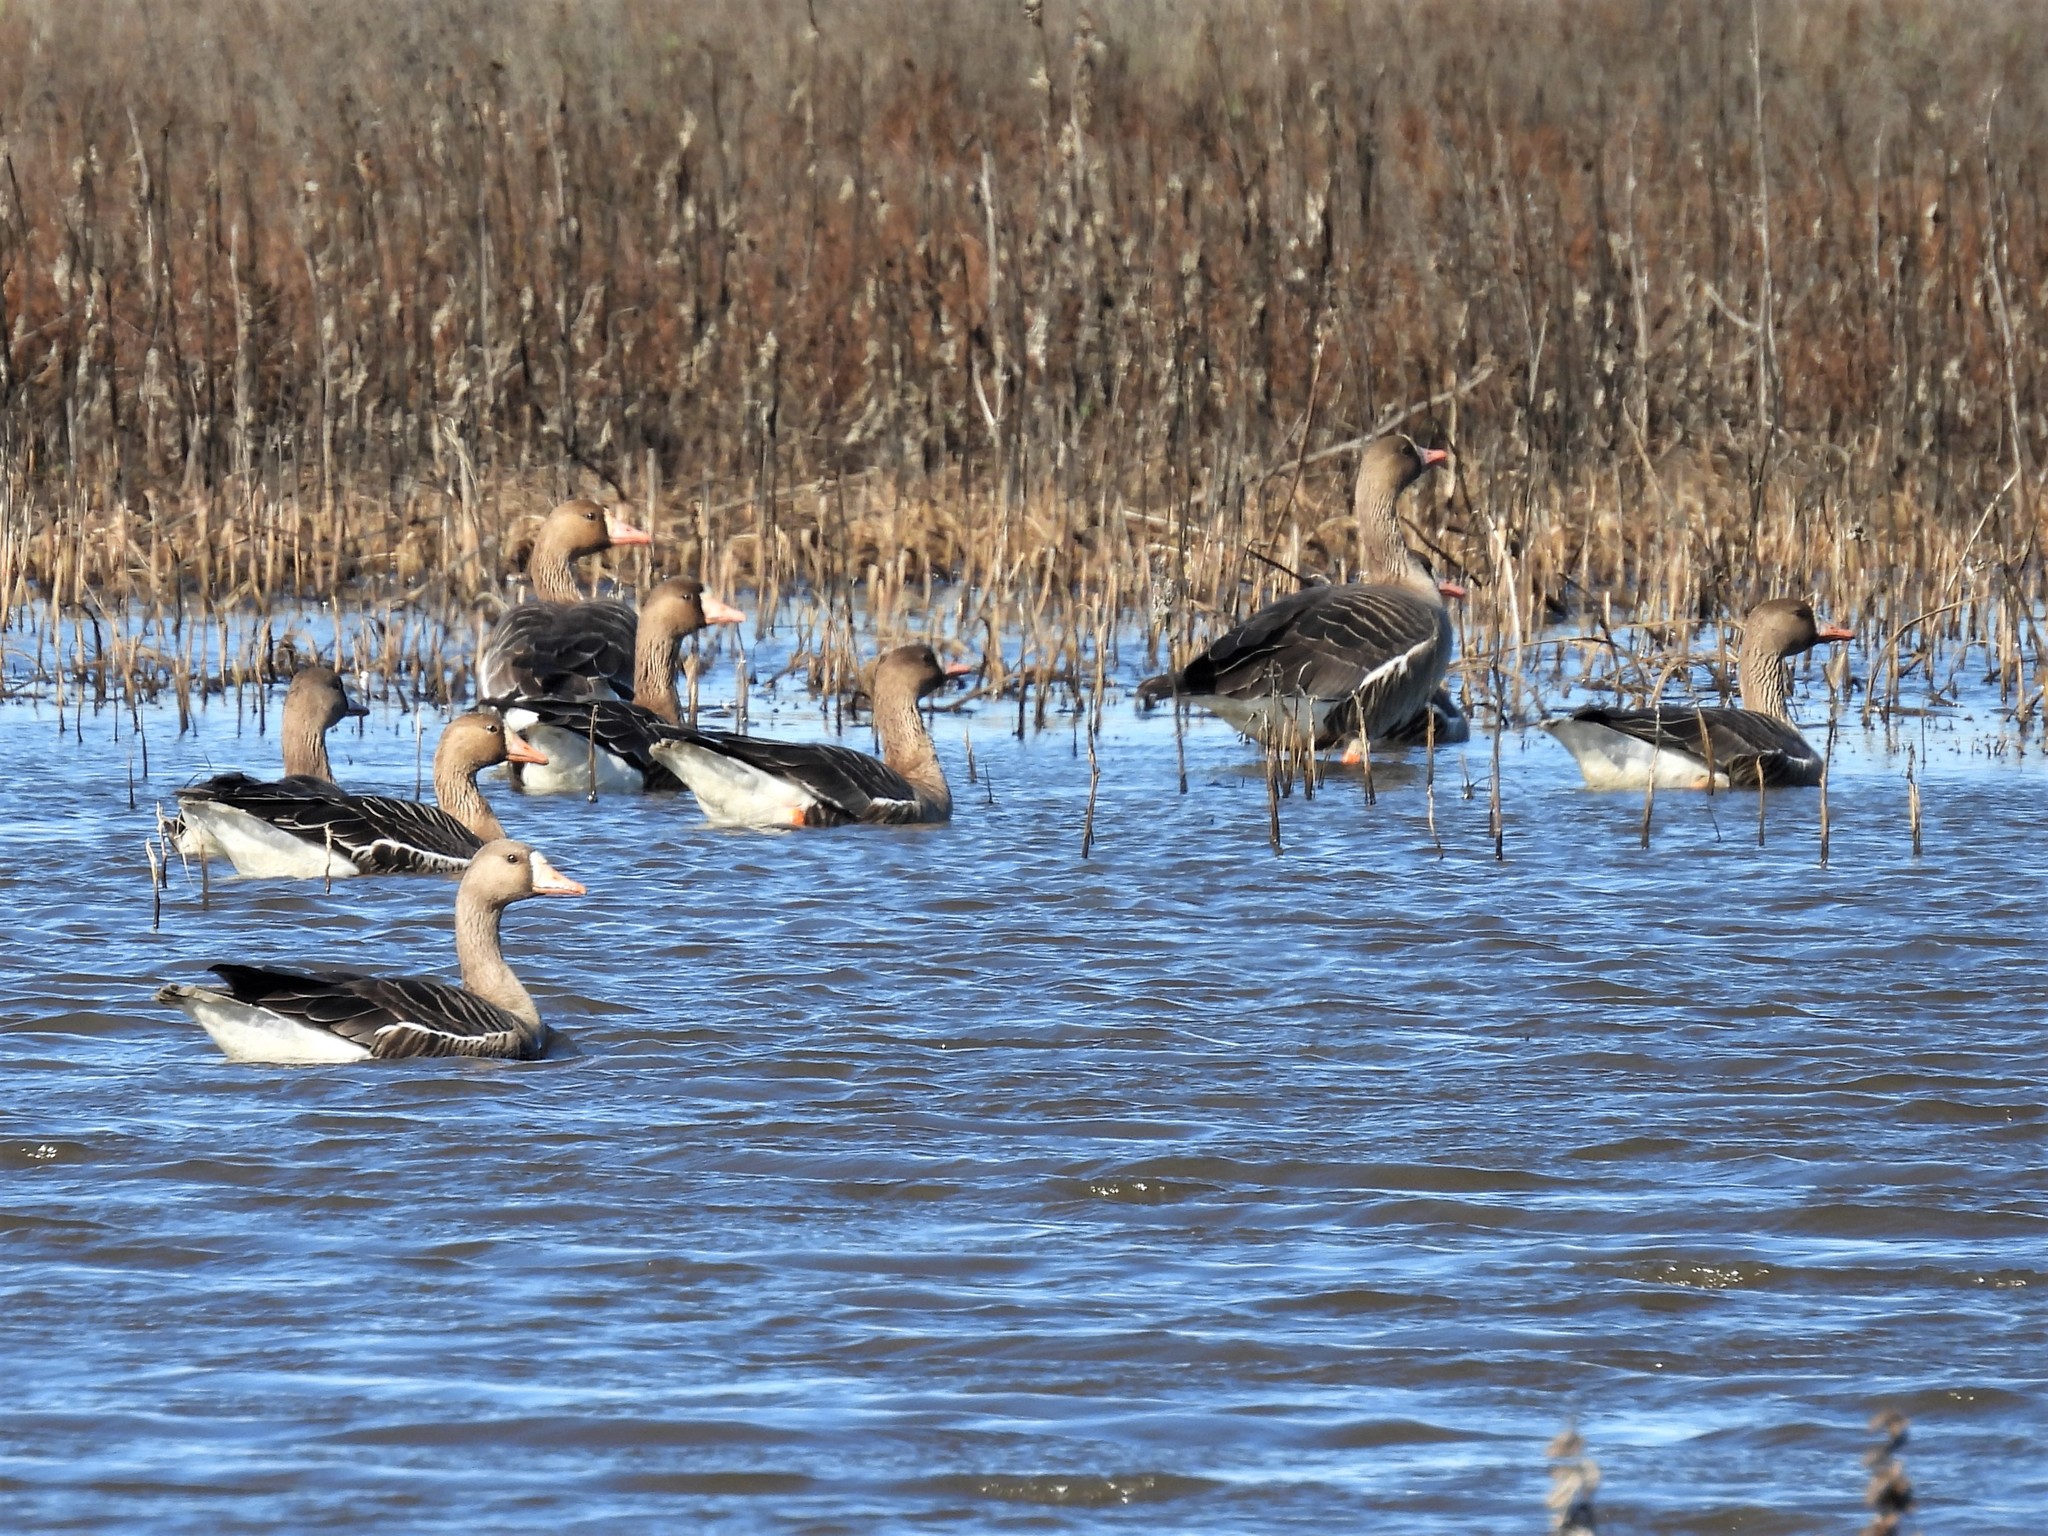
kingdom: Animalia
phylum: Chordata
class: Aves
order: Anseriformes
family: Anatidae
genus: Anser
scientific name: Anser albifrons
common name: Greater white-fronted goose
